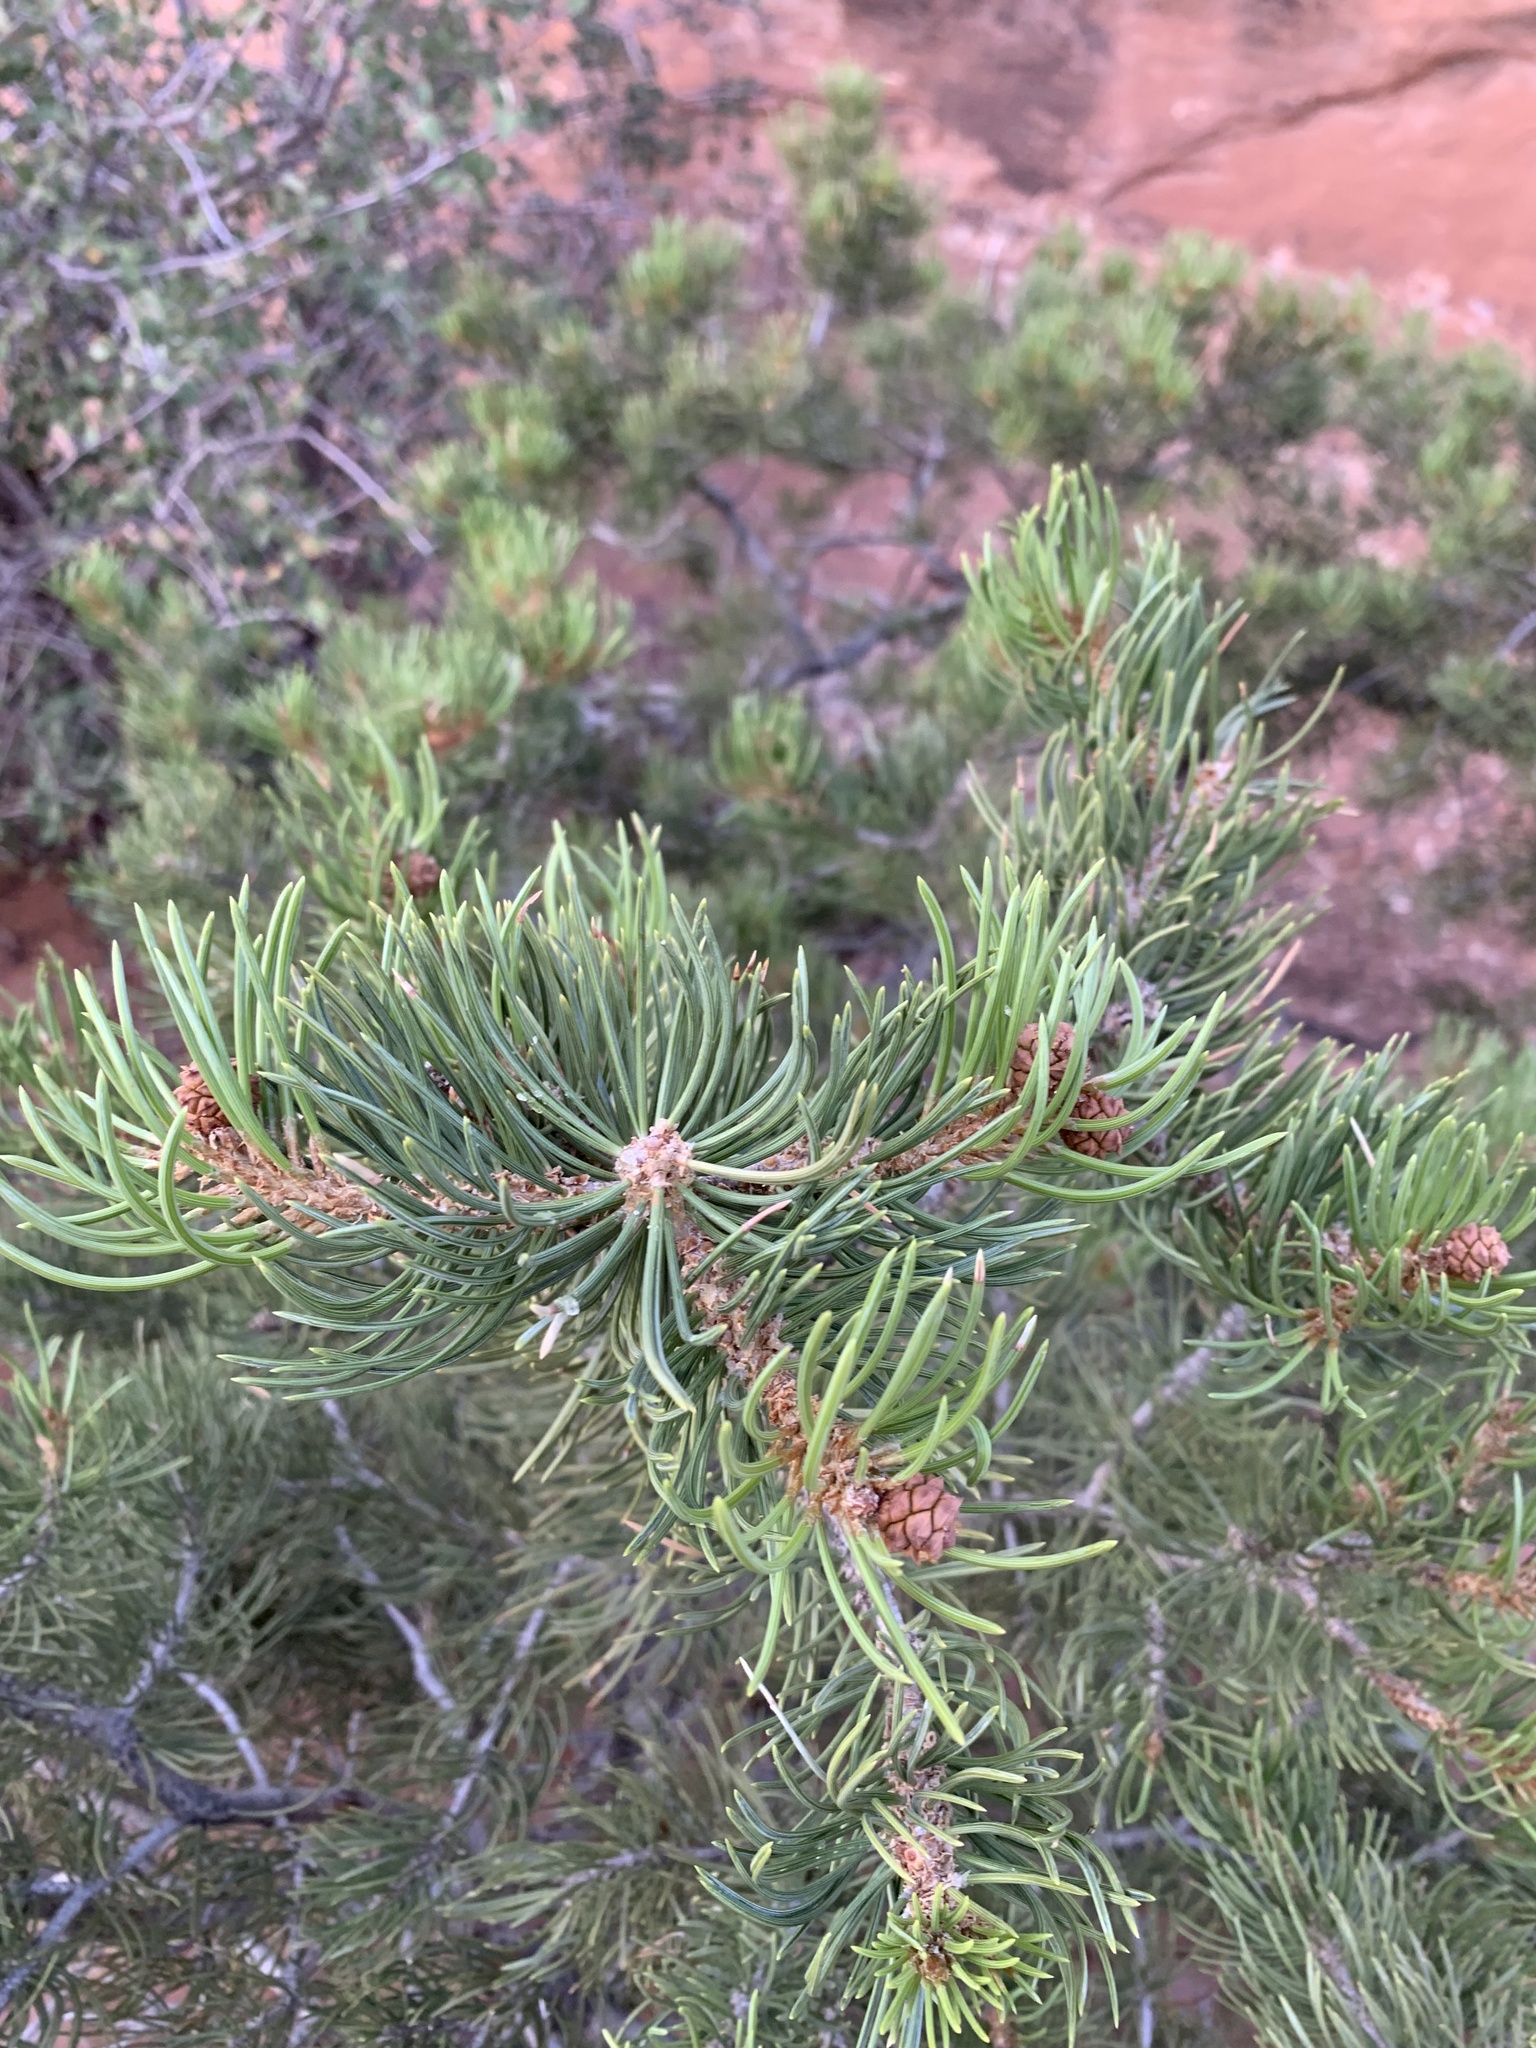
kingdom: Plantae
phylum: Tracheophyta
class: Pinopsida
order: Pinales
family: Pinaceae
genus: Pinus
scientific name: Pinus edulis
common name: Colorado pinyon
